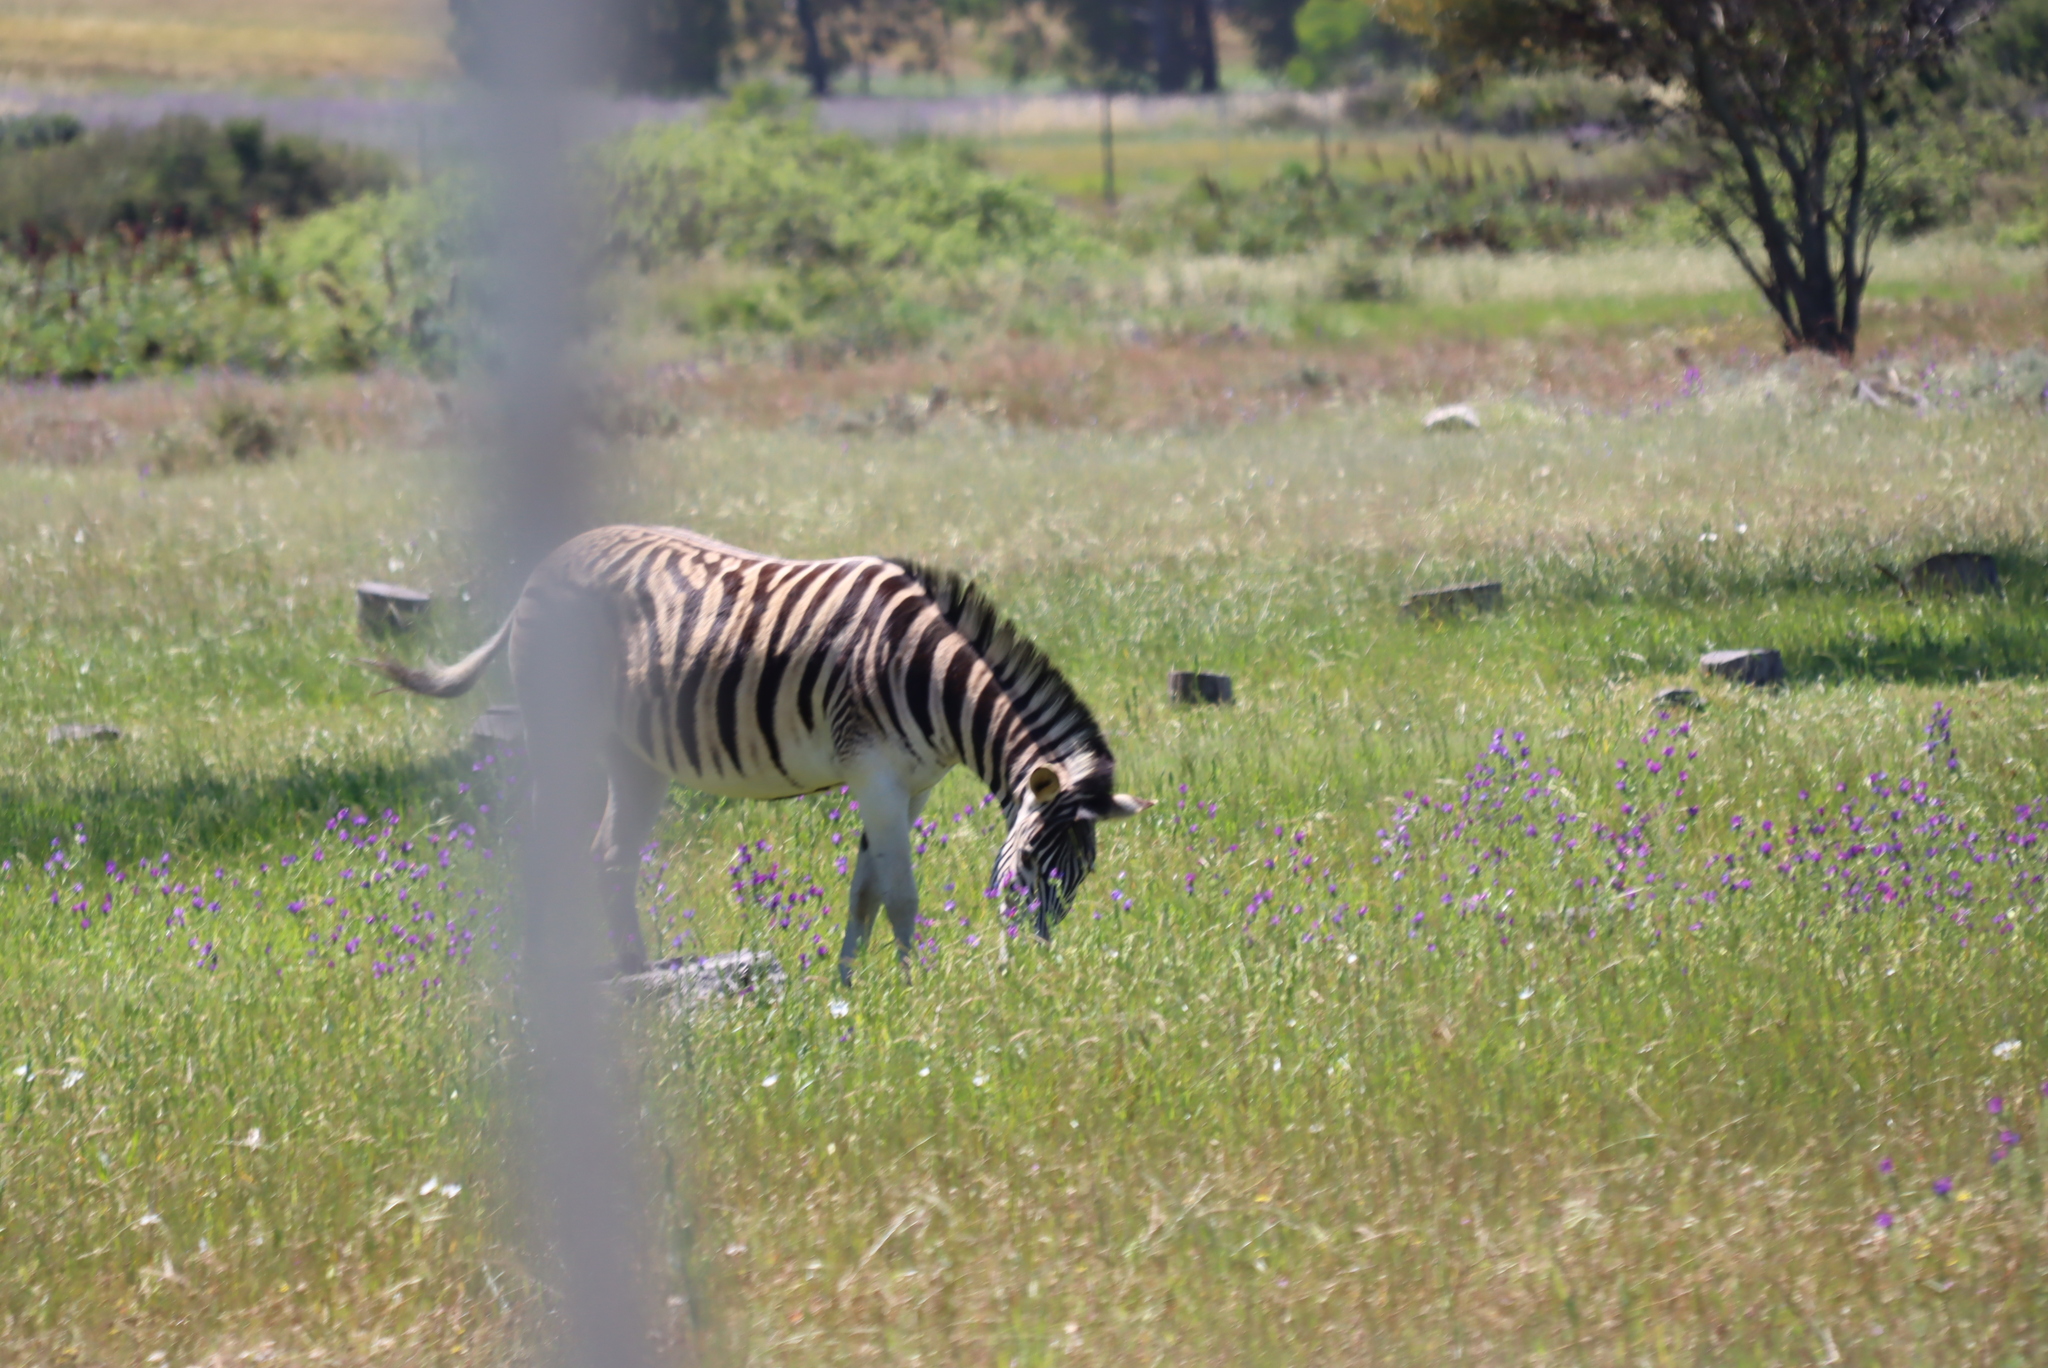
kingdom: Animalia
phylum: Chordata
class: Mammalia
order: Perissodactyla
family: Equidae
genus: Equus
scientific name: Equus quagga
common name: Plains zebra
